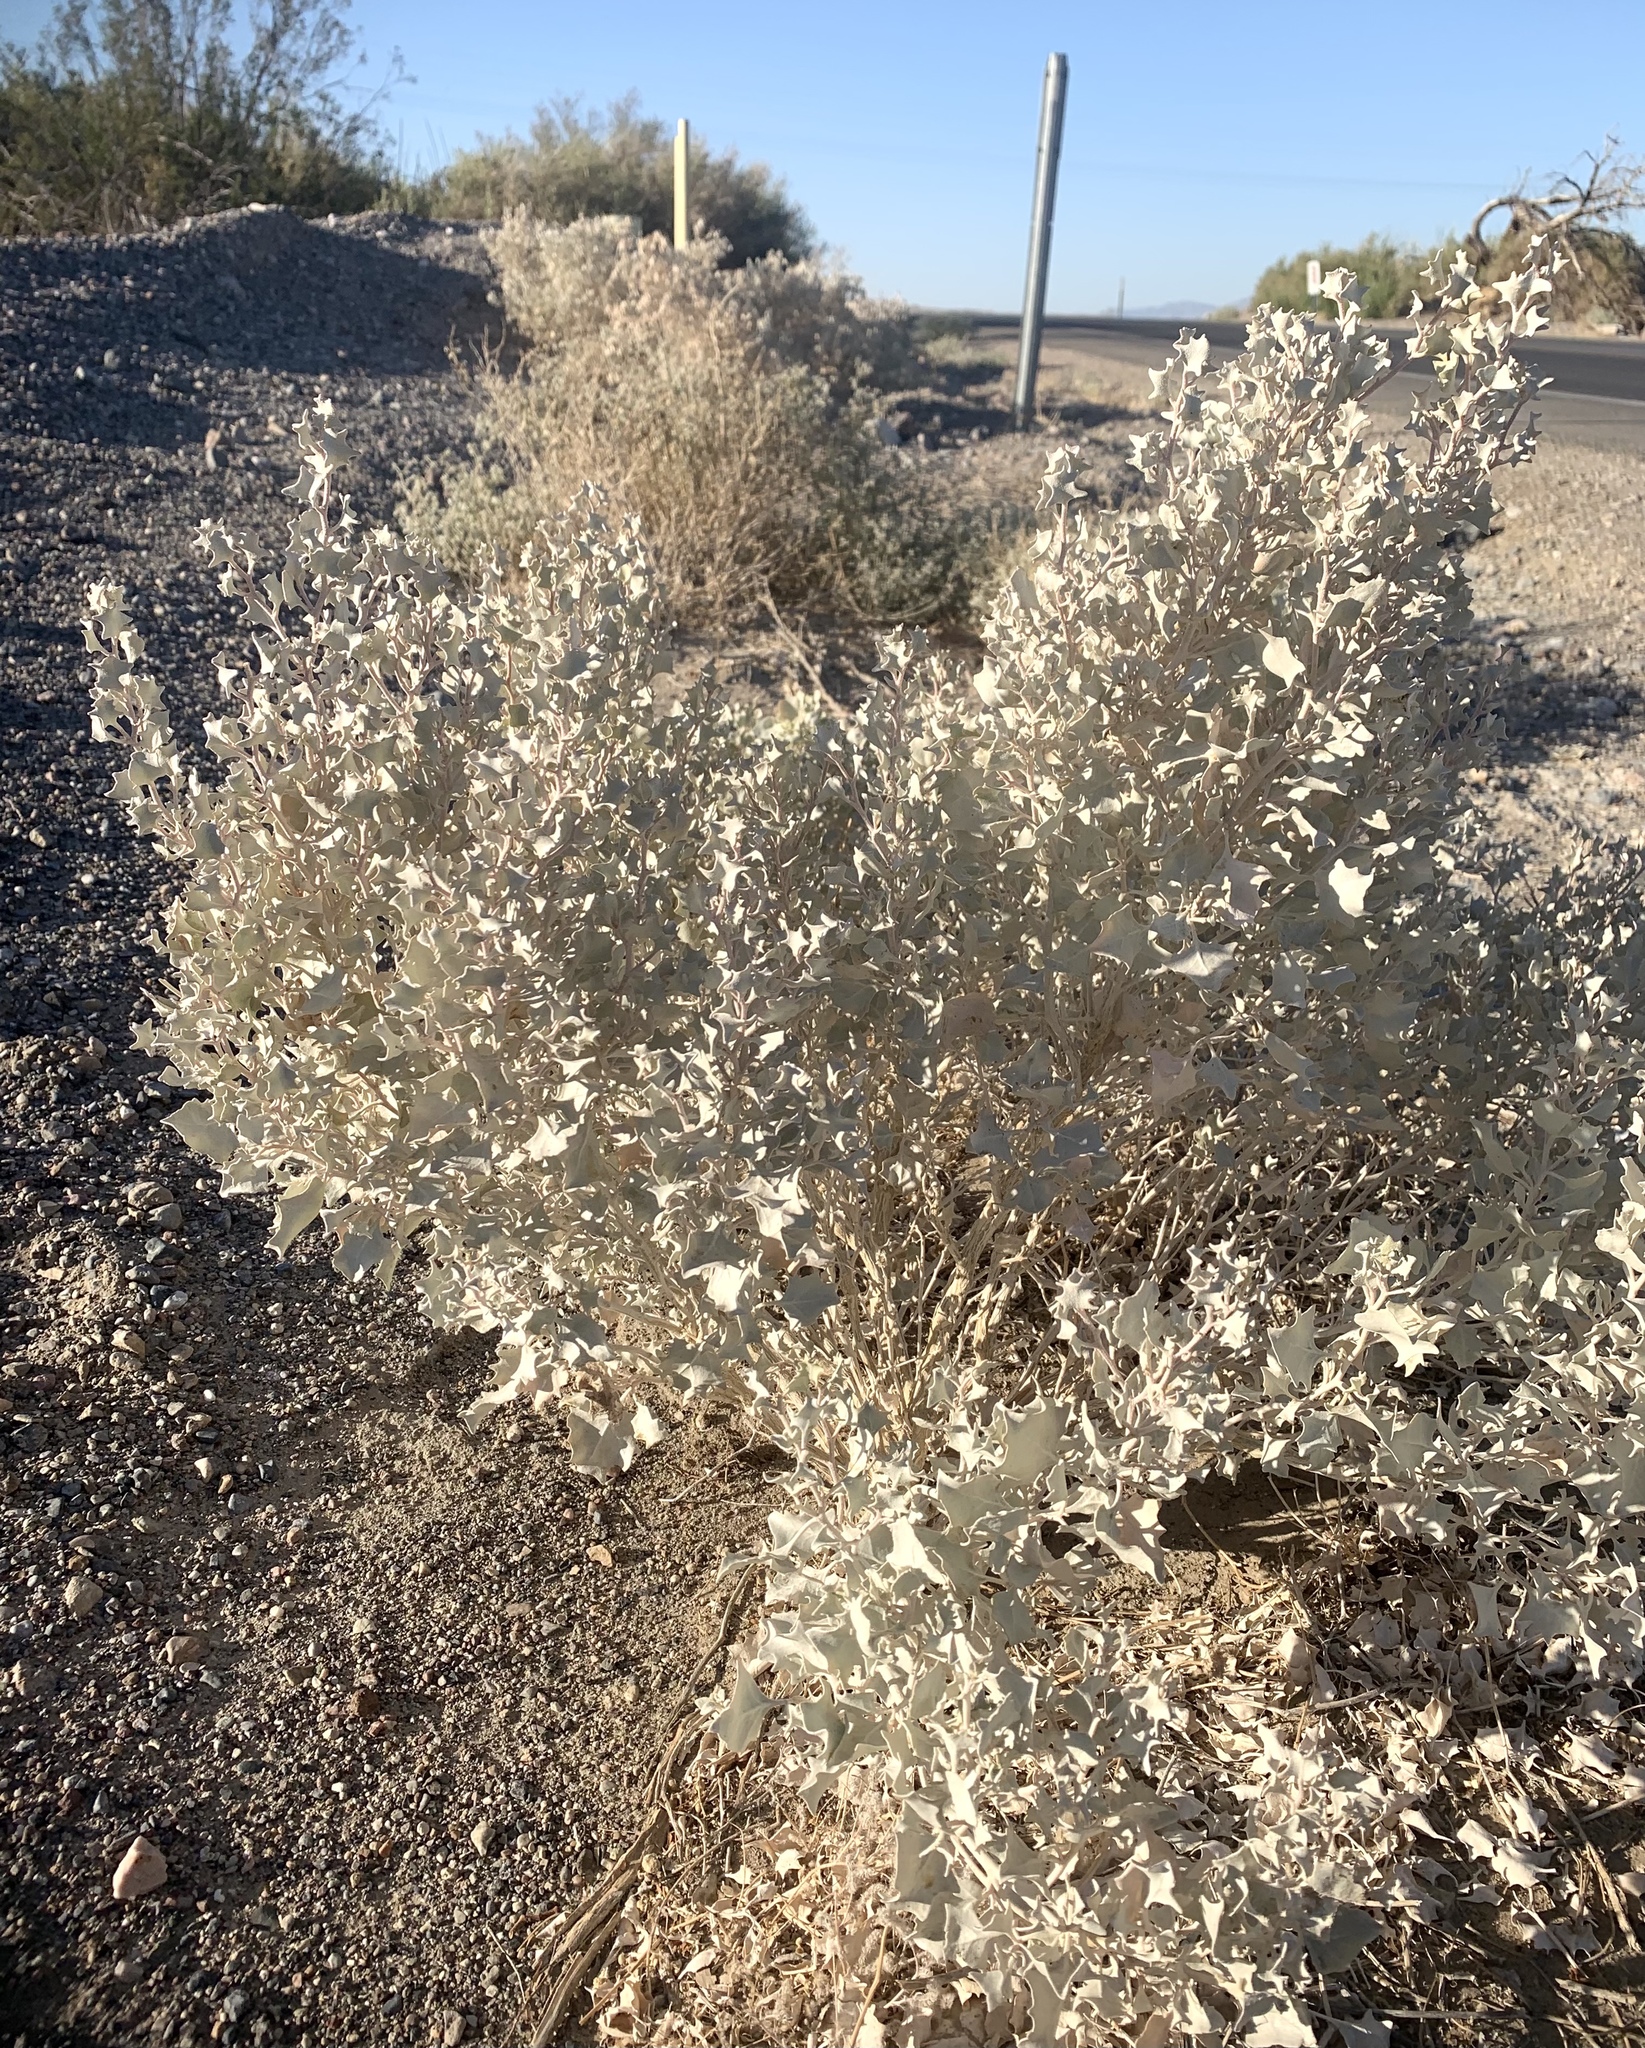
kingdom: Plantae
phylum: Tracheophyta
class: Magnoliopsida
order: Caryophyllales
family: Amaranthaceae
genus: Atriplex
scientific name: Atriplex hymenelytra
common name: Desert-holly
